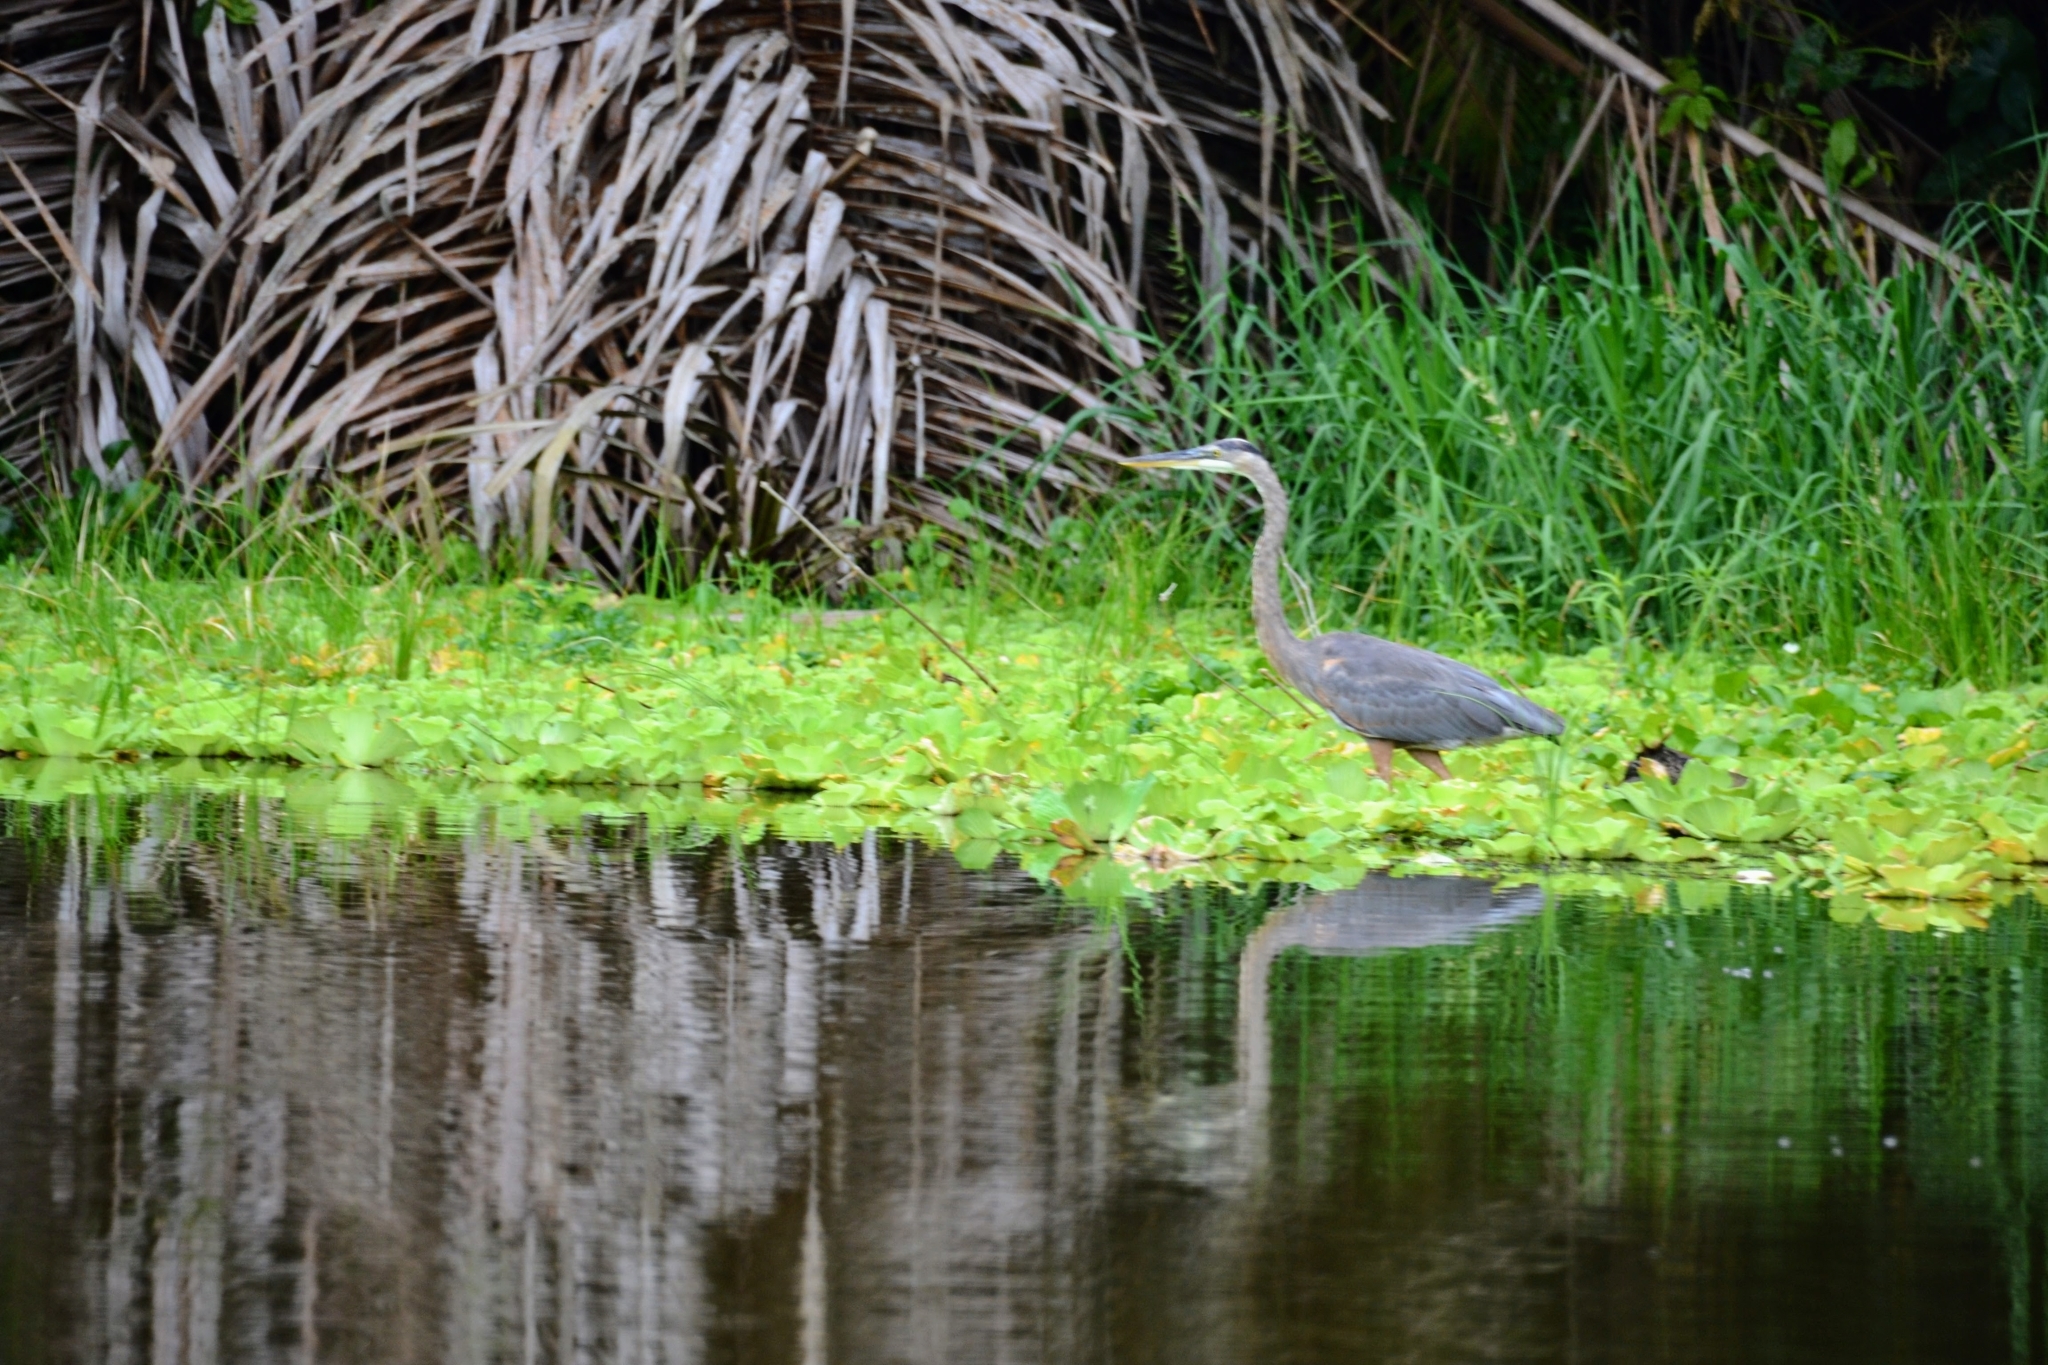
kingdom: Animalia
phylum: Chordata
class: Aves
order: Pelecaniformes
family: Ardeidae
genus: Ardea
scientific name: Ardea herodias
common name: Great blue heron
